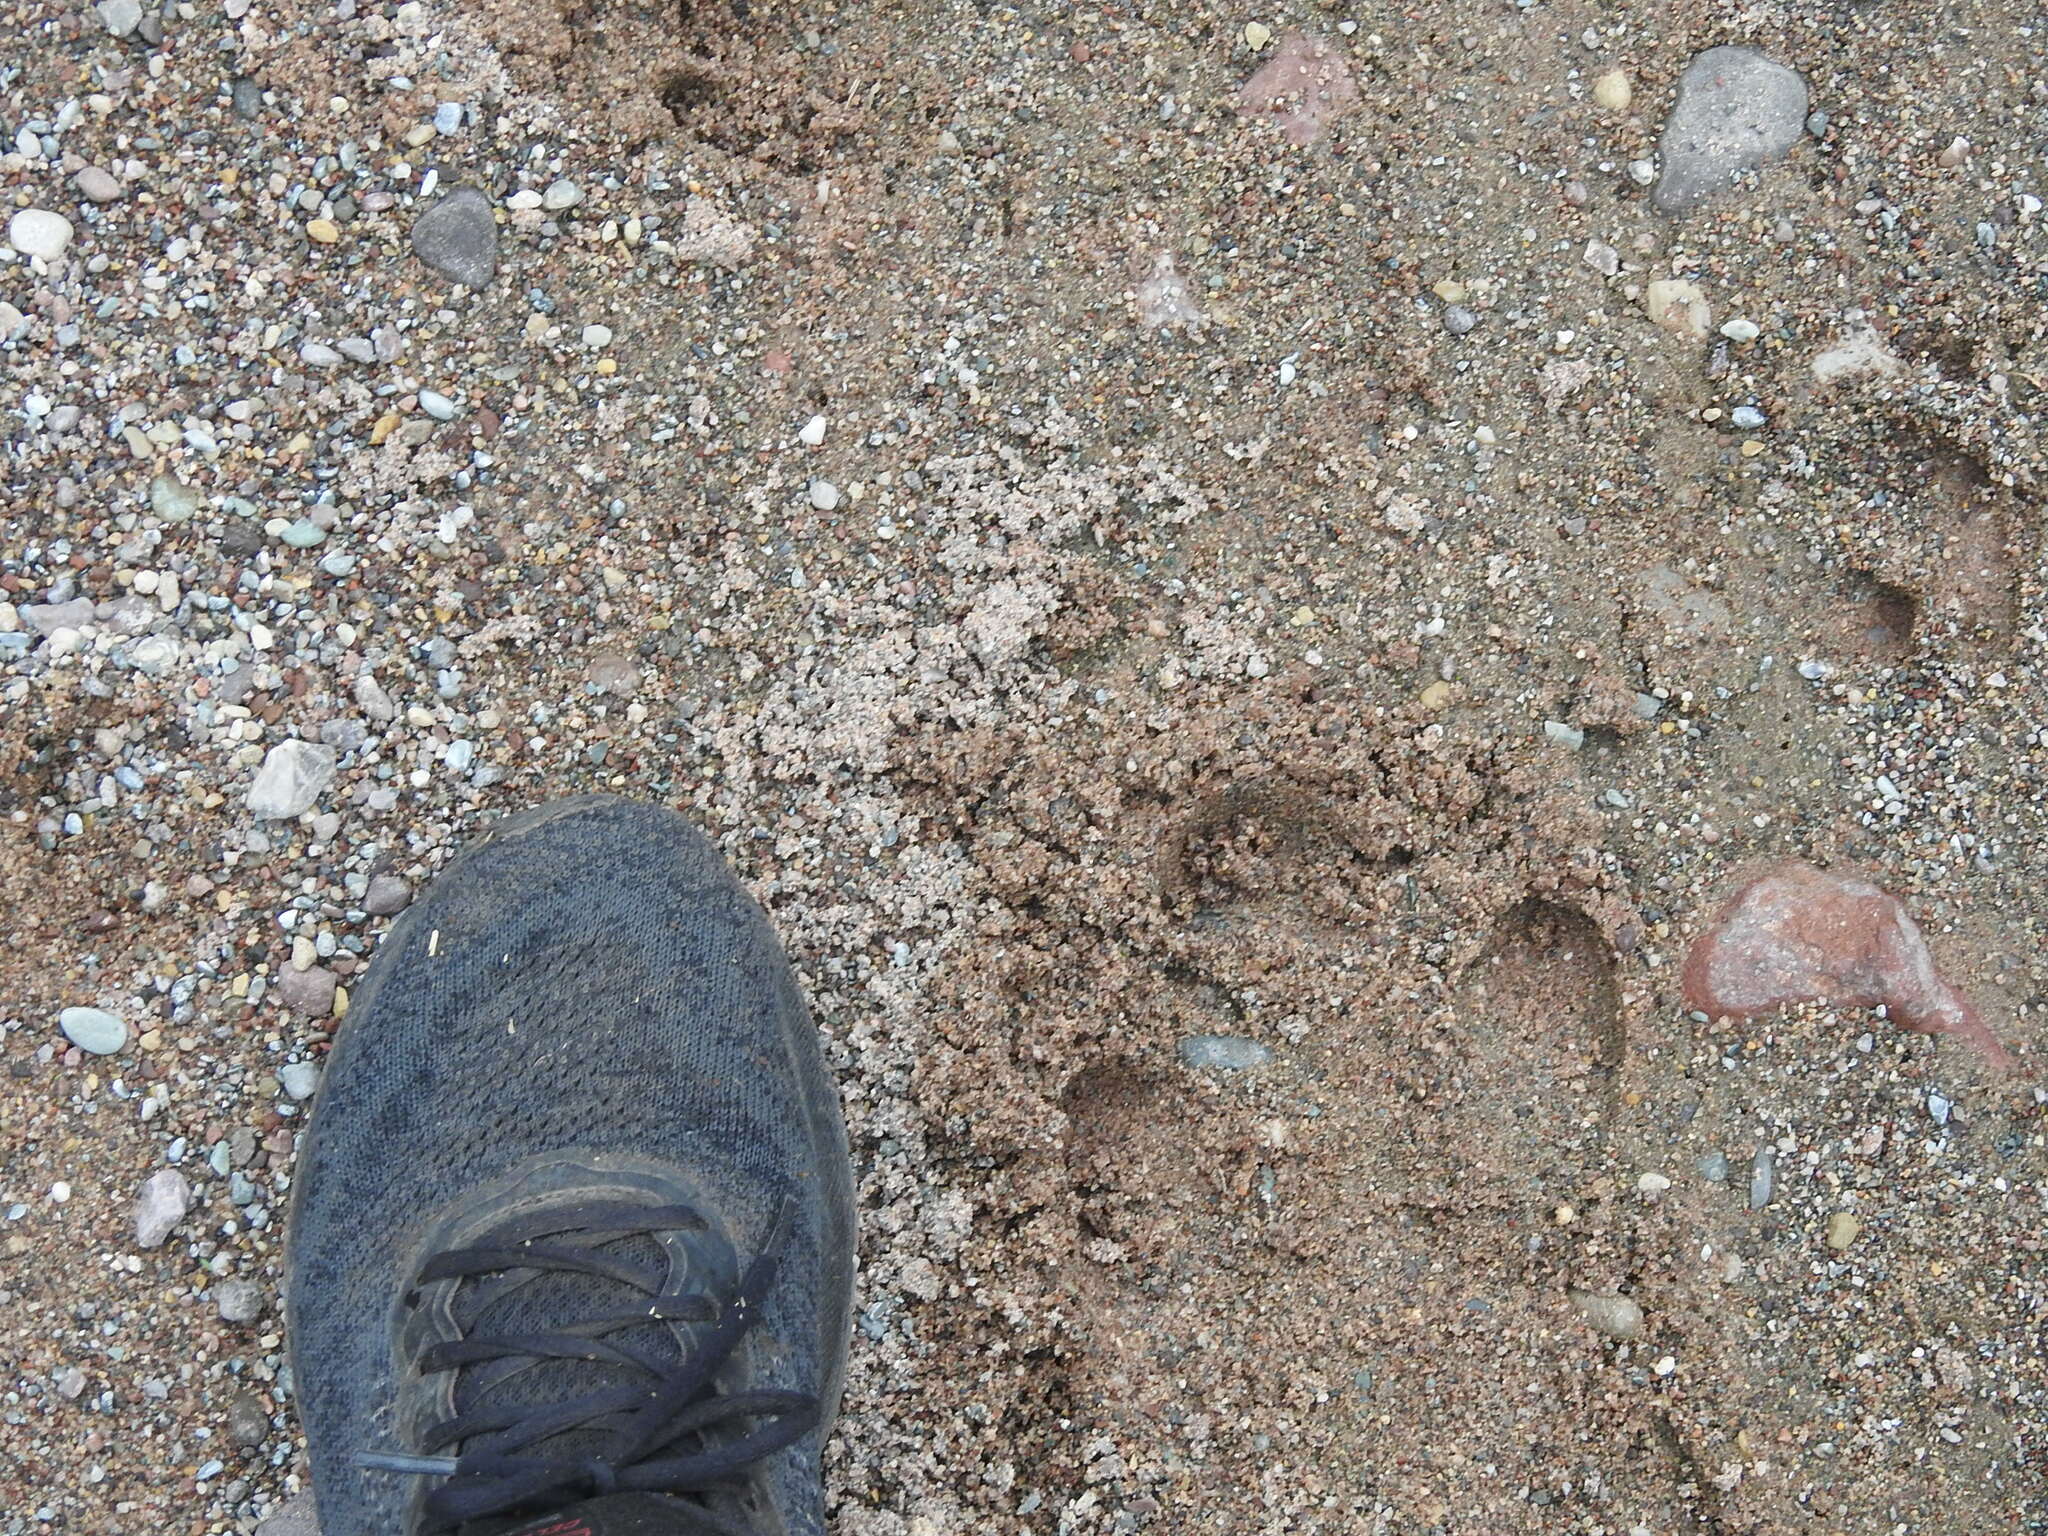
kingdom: Animalia
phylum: Chordata
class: Mammalia
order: Perissodactyla
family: Tapiridae
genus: Tapirus
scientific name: Tapirus terrestris
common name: Brazilian tapir
